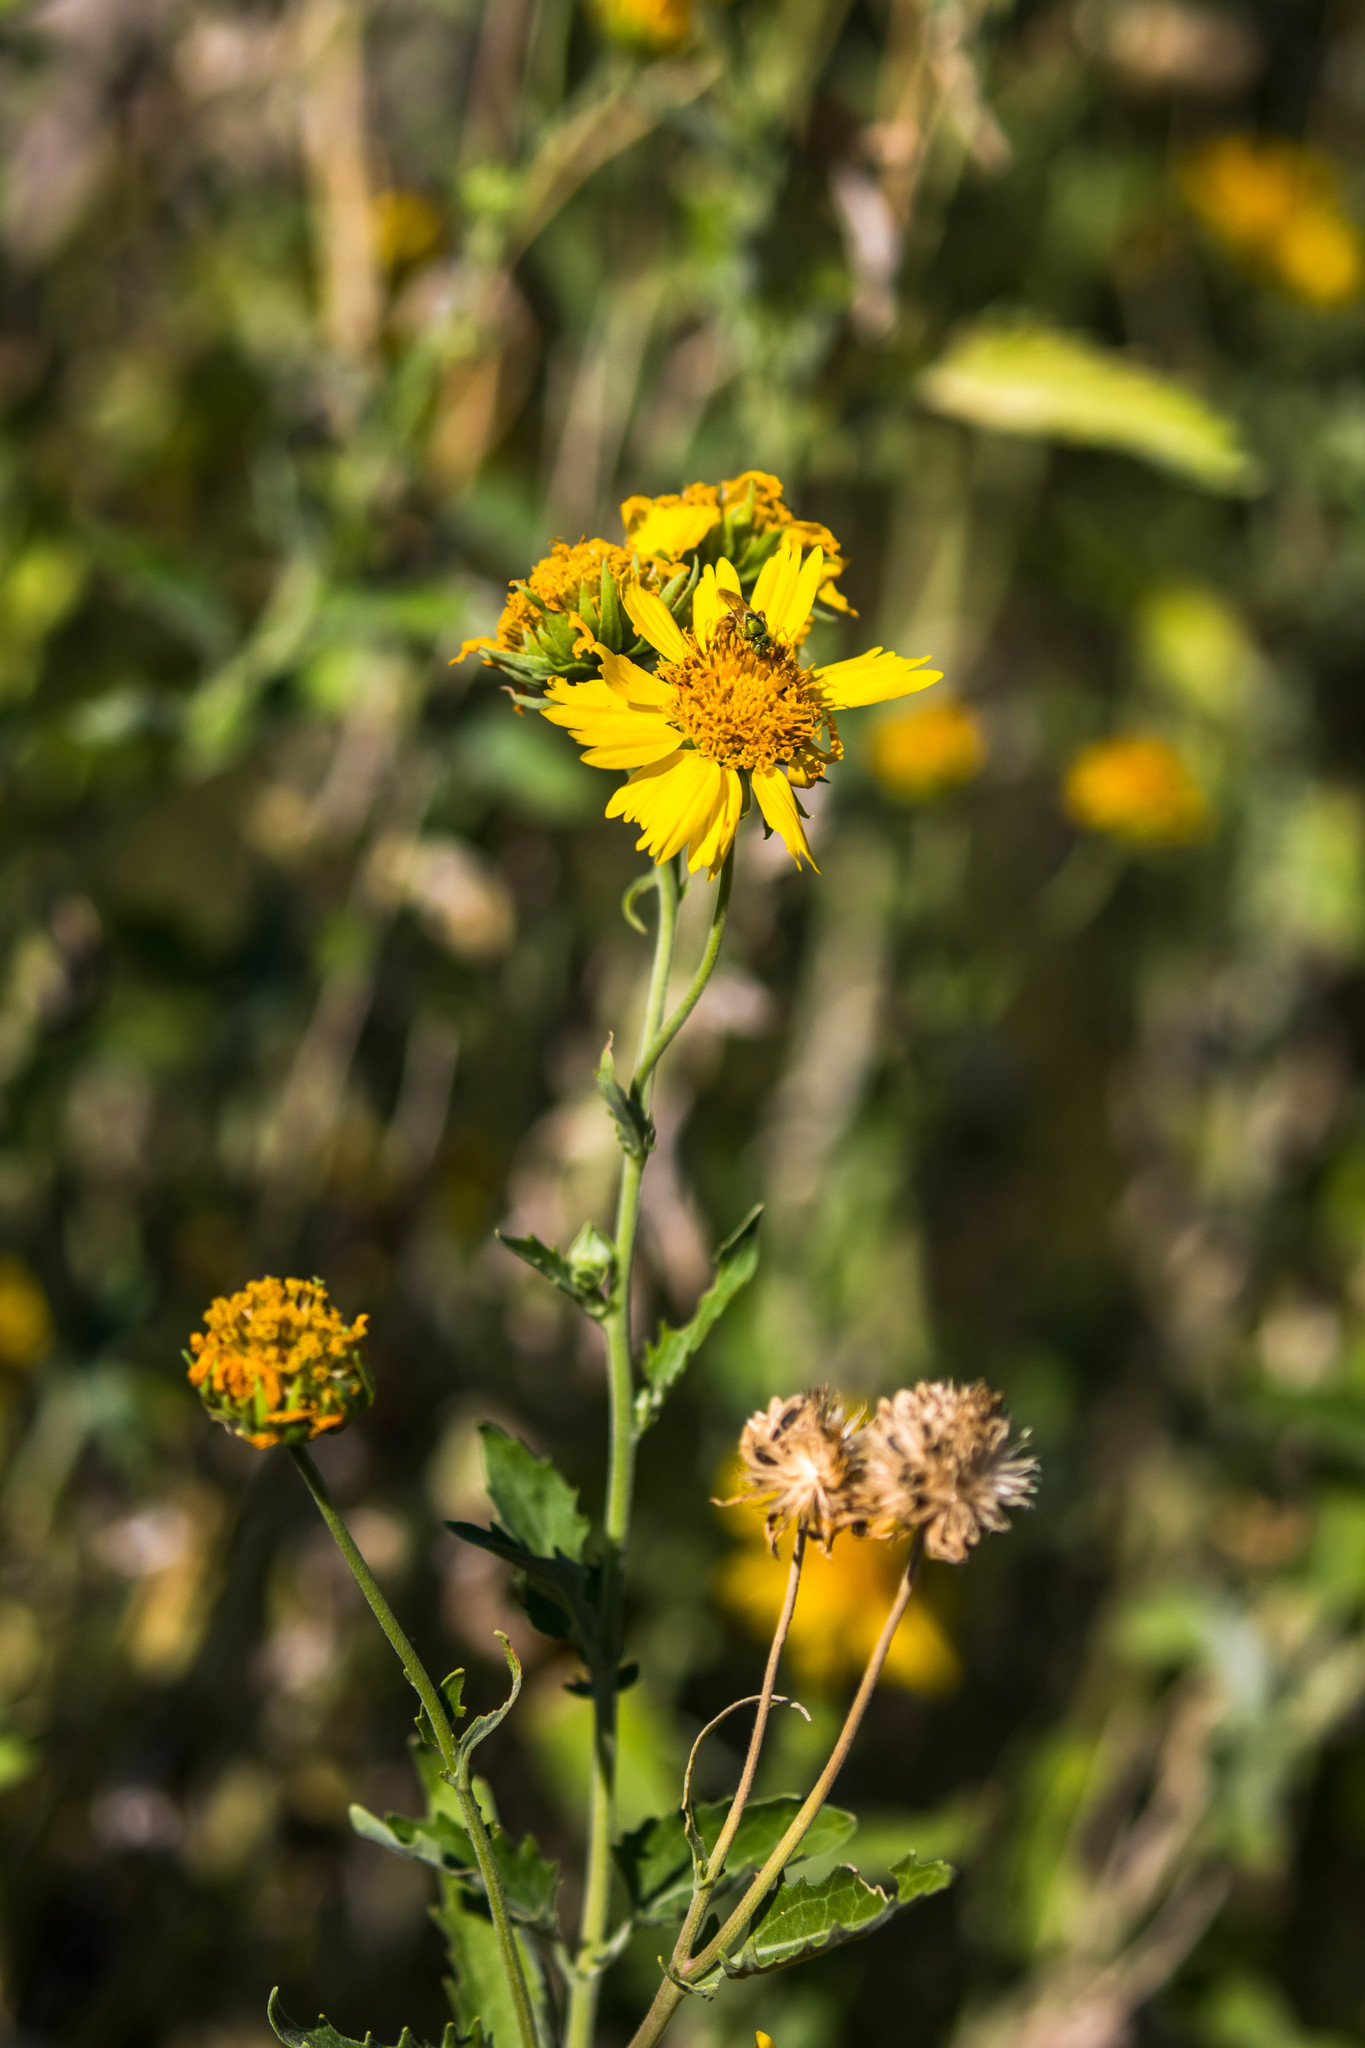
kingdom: Plantae
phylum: Tracheophyta
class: Magnoliopsida
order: Asterales
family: Asteraceae
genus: Verbesina
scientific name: Verbesina encelioides
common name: Golden crownbeard
